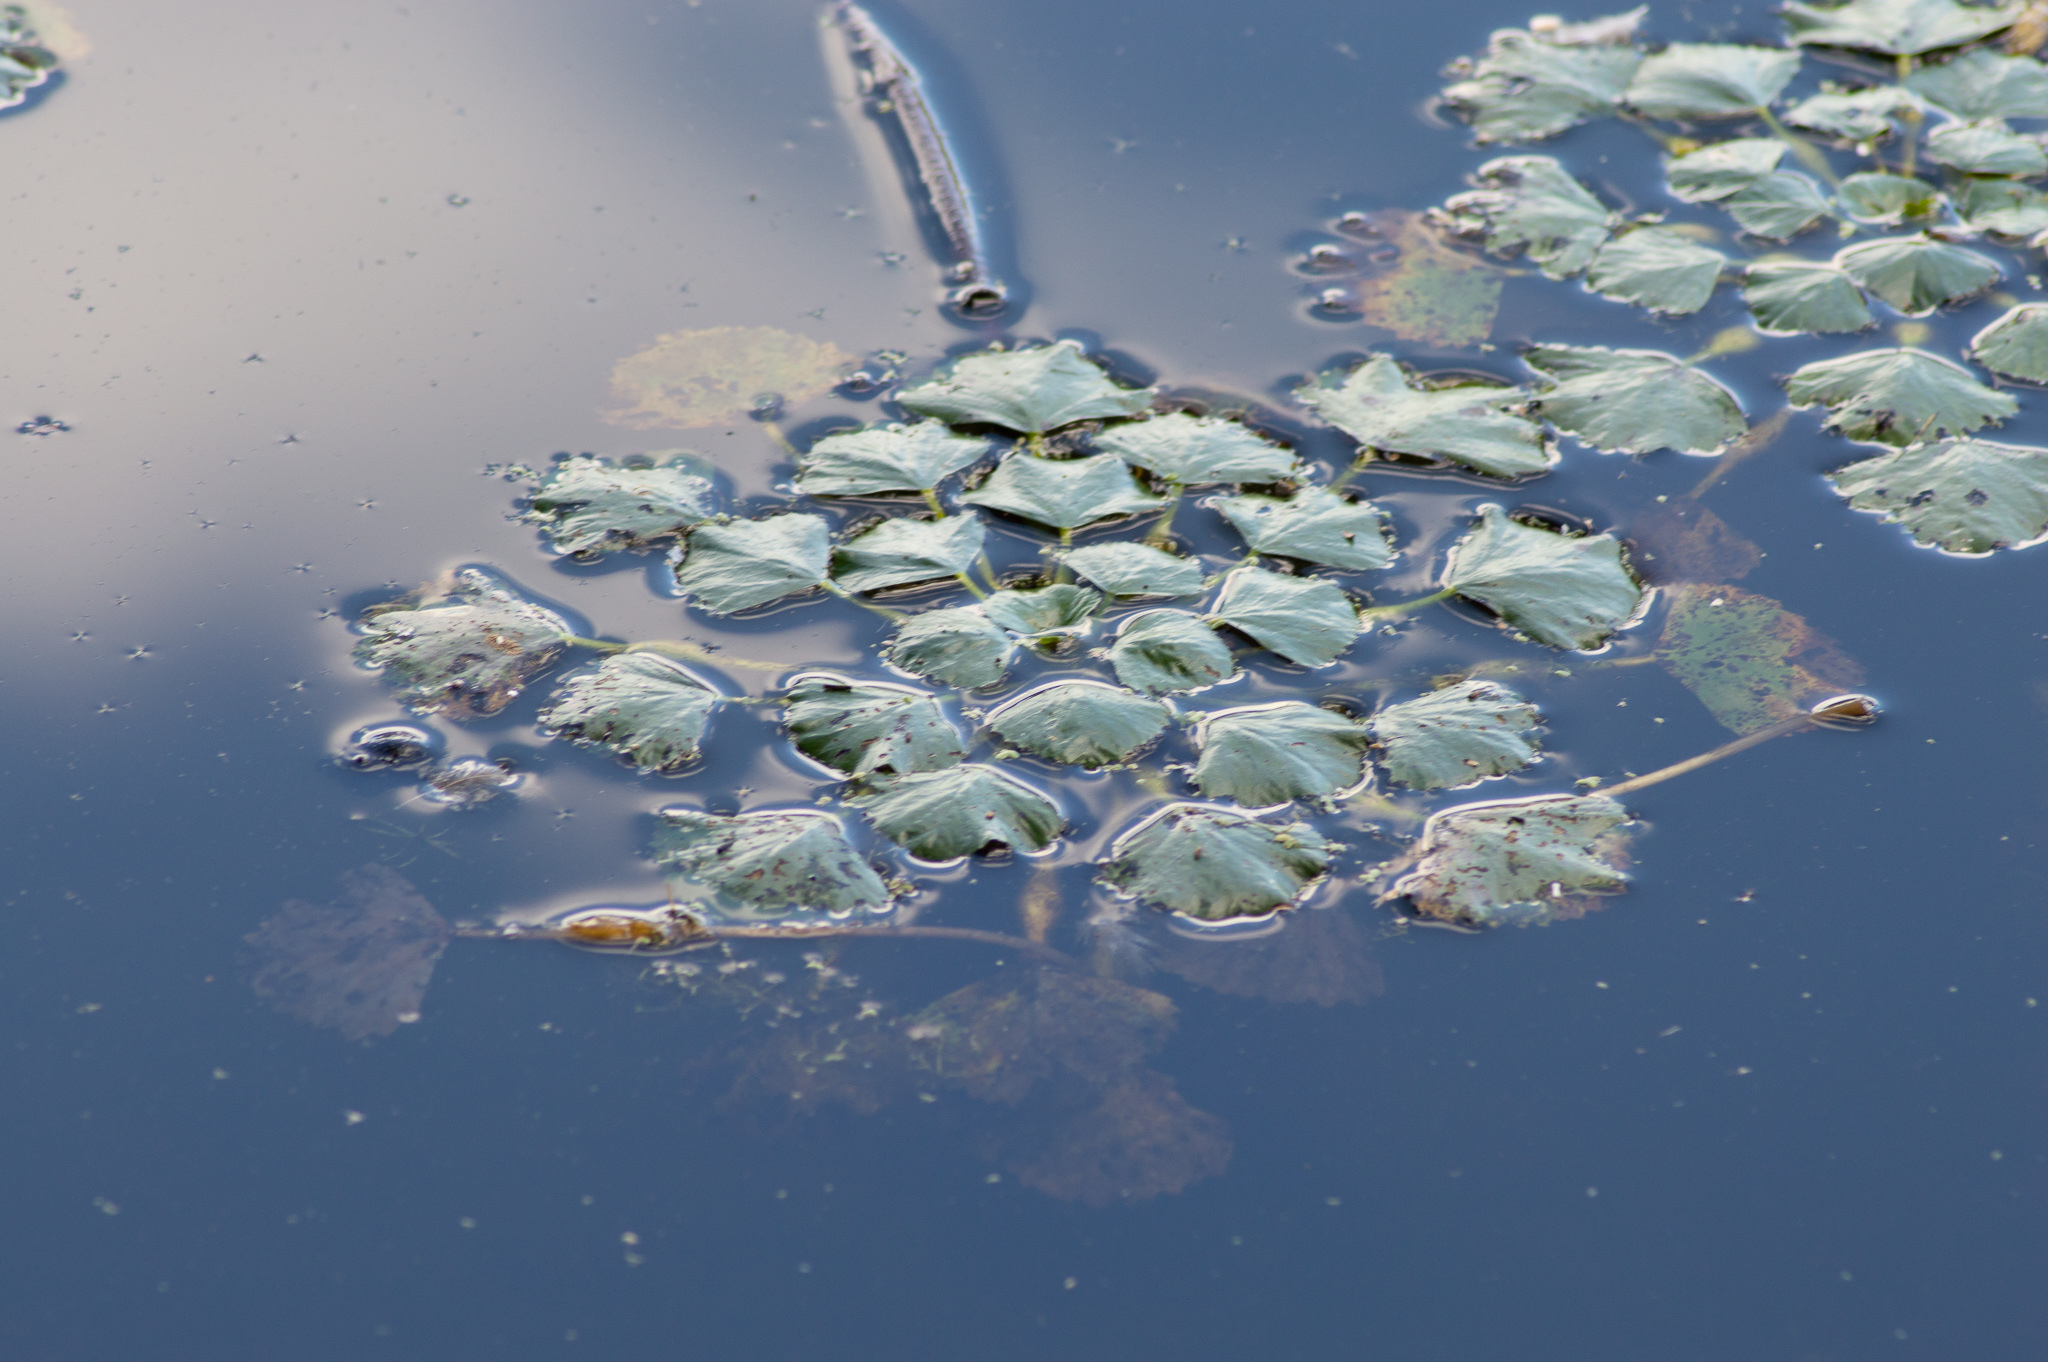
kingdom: Plantae
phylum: Tracheophyta
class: Magnoliopsida
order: Myrtales
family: Lythraceae
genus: Trapa
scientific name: Trapa natans
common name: Water chestnut
